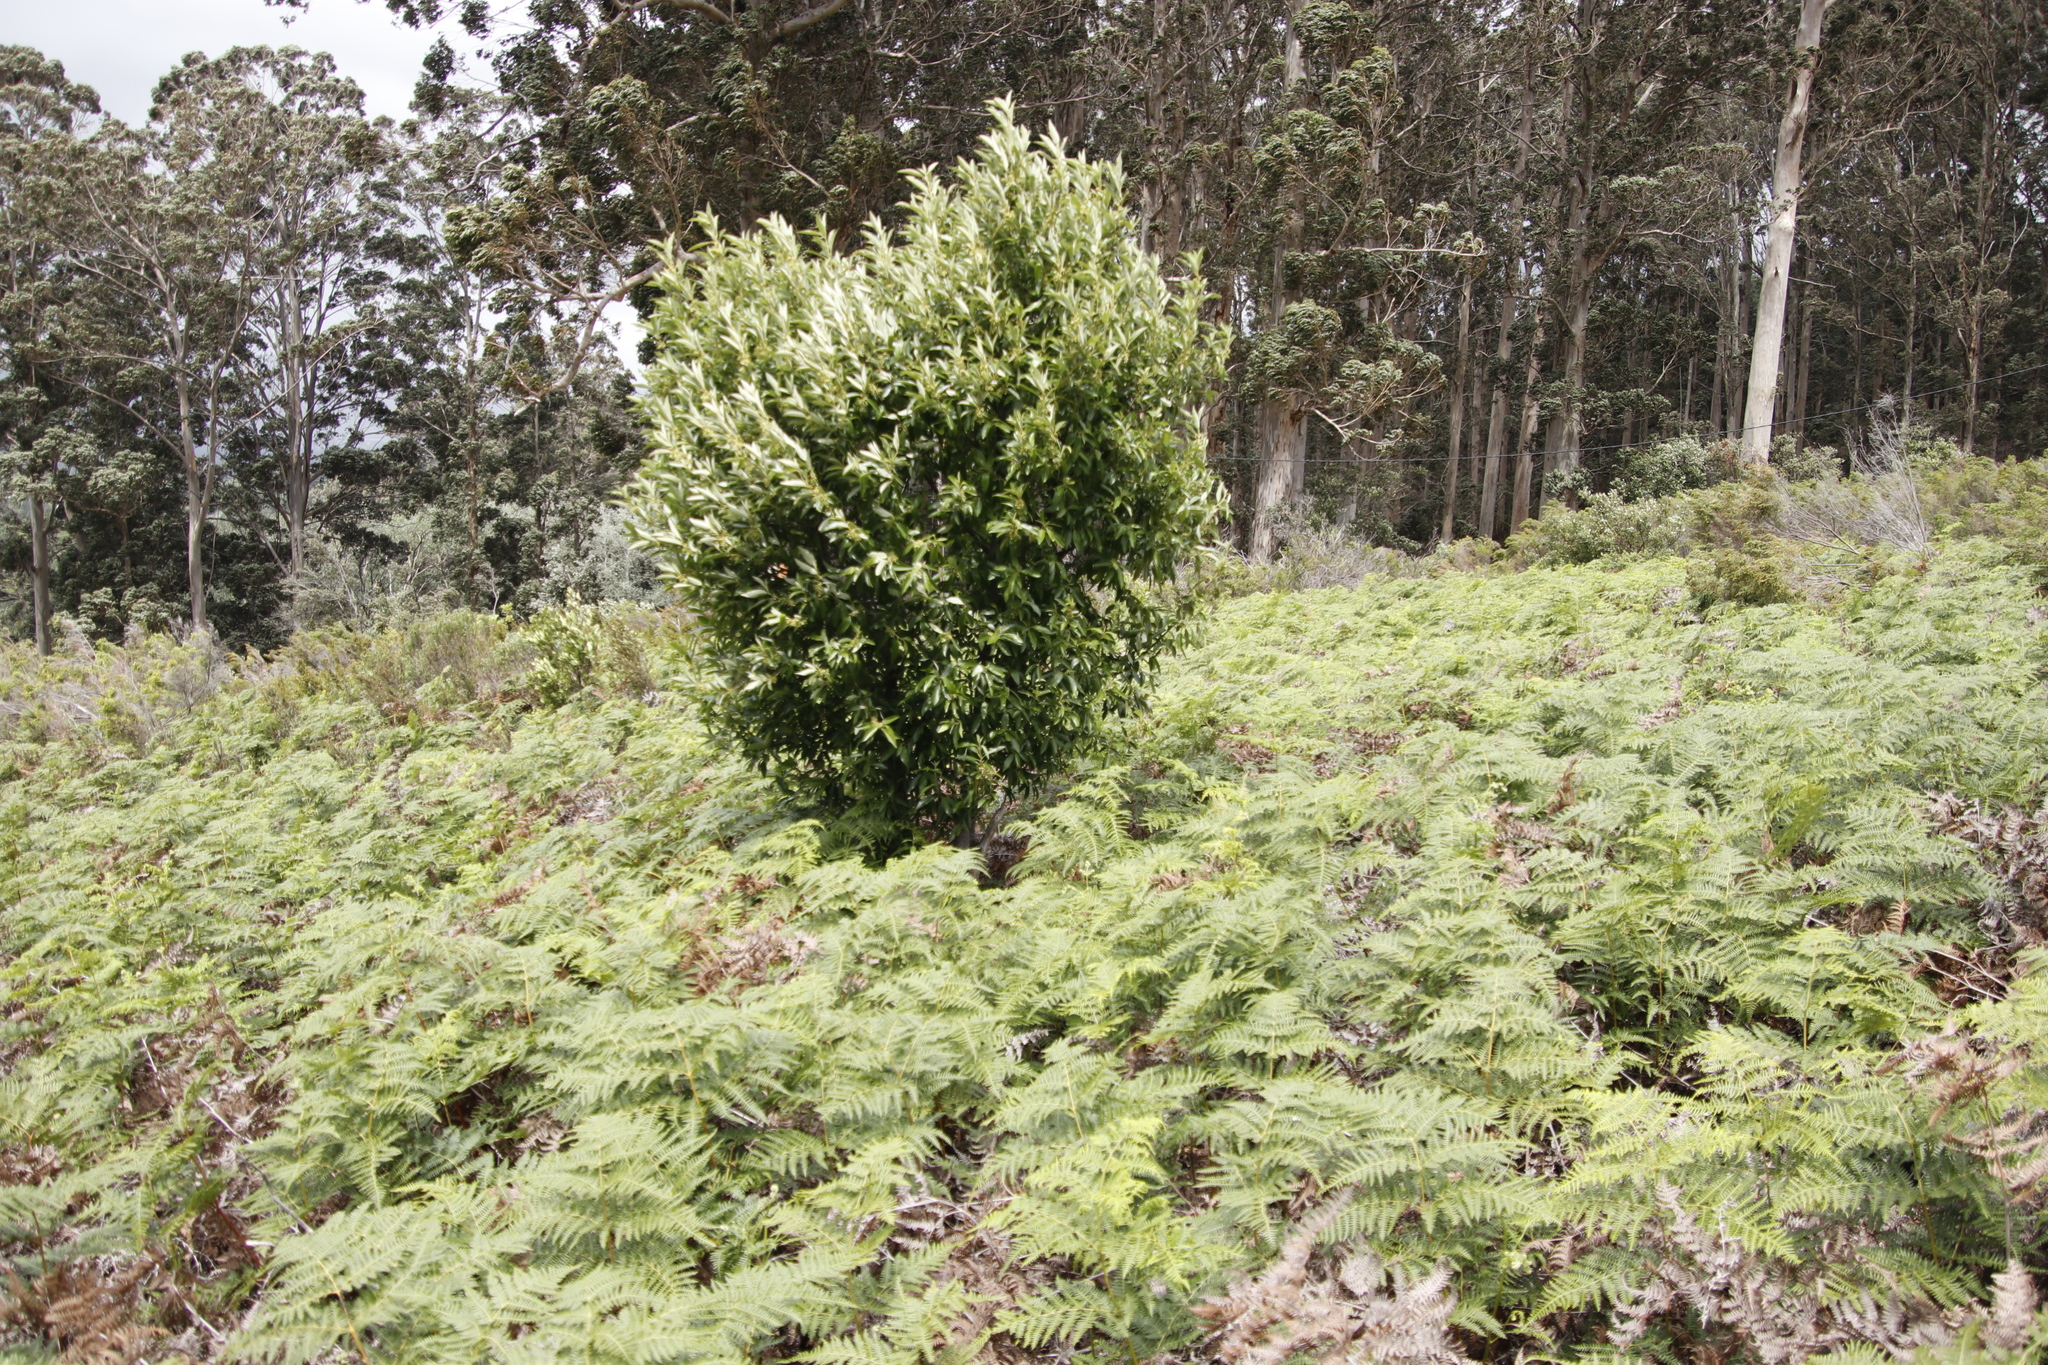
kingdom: Plantae
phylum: Tracheophyta
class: Magnoliopsida
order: Malpighiales
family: Achariaceae
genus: Kiggelaria
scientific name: Kiggelaria africana
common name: Wild peach
